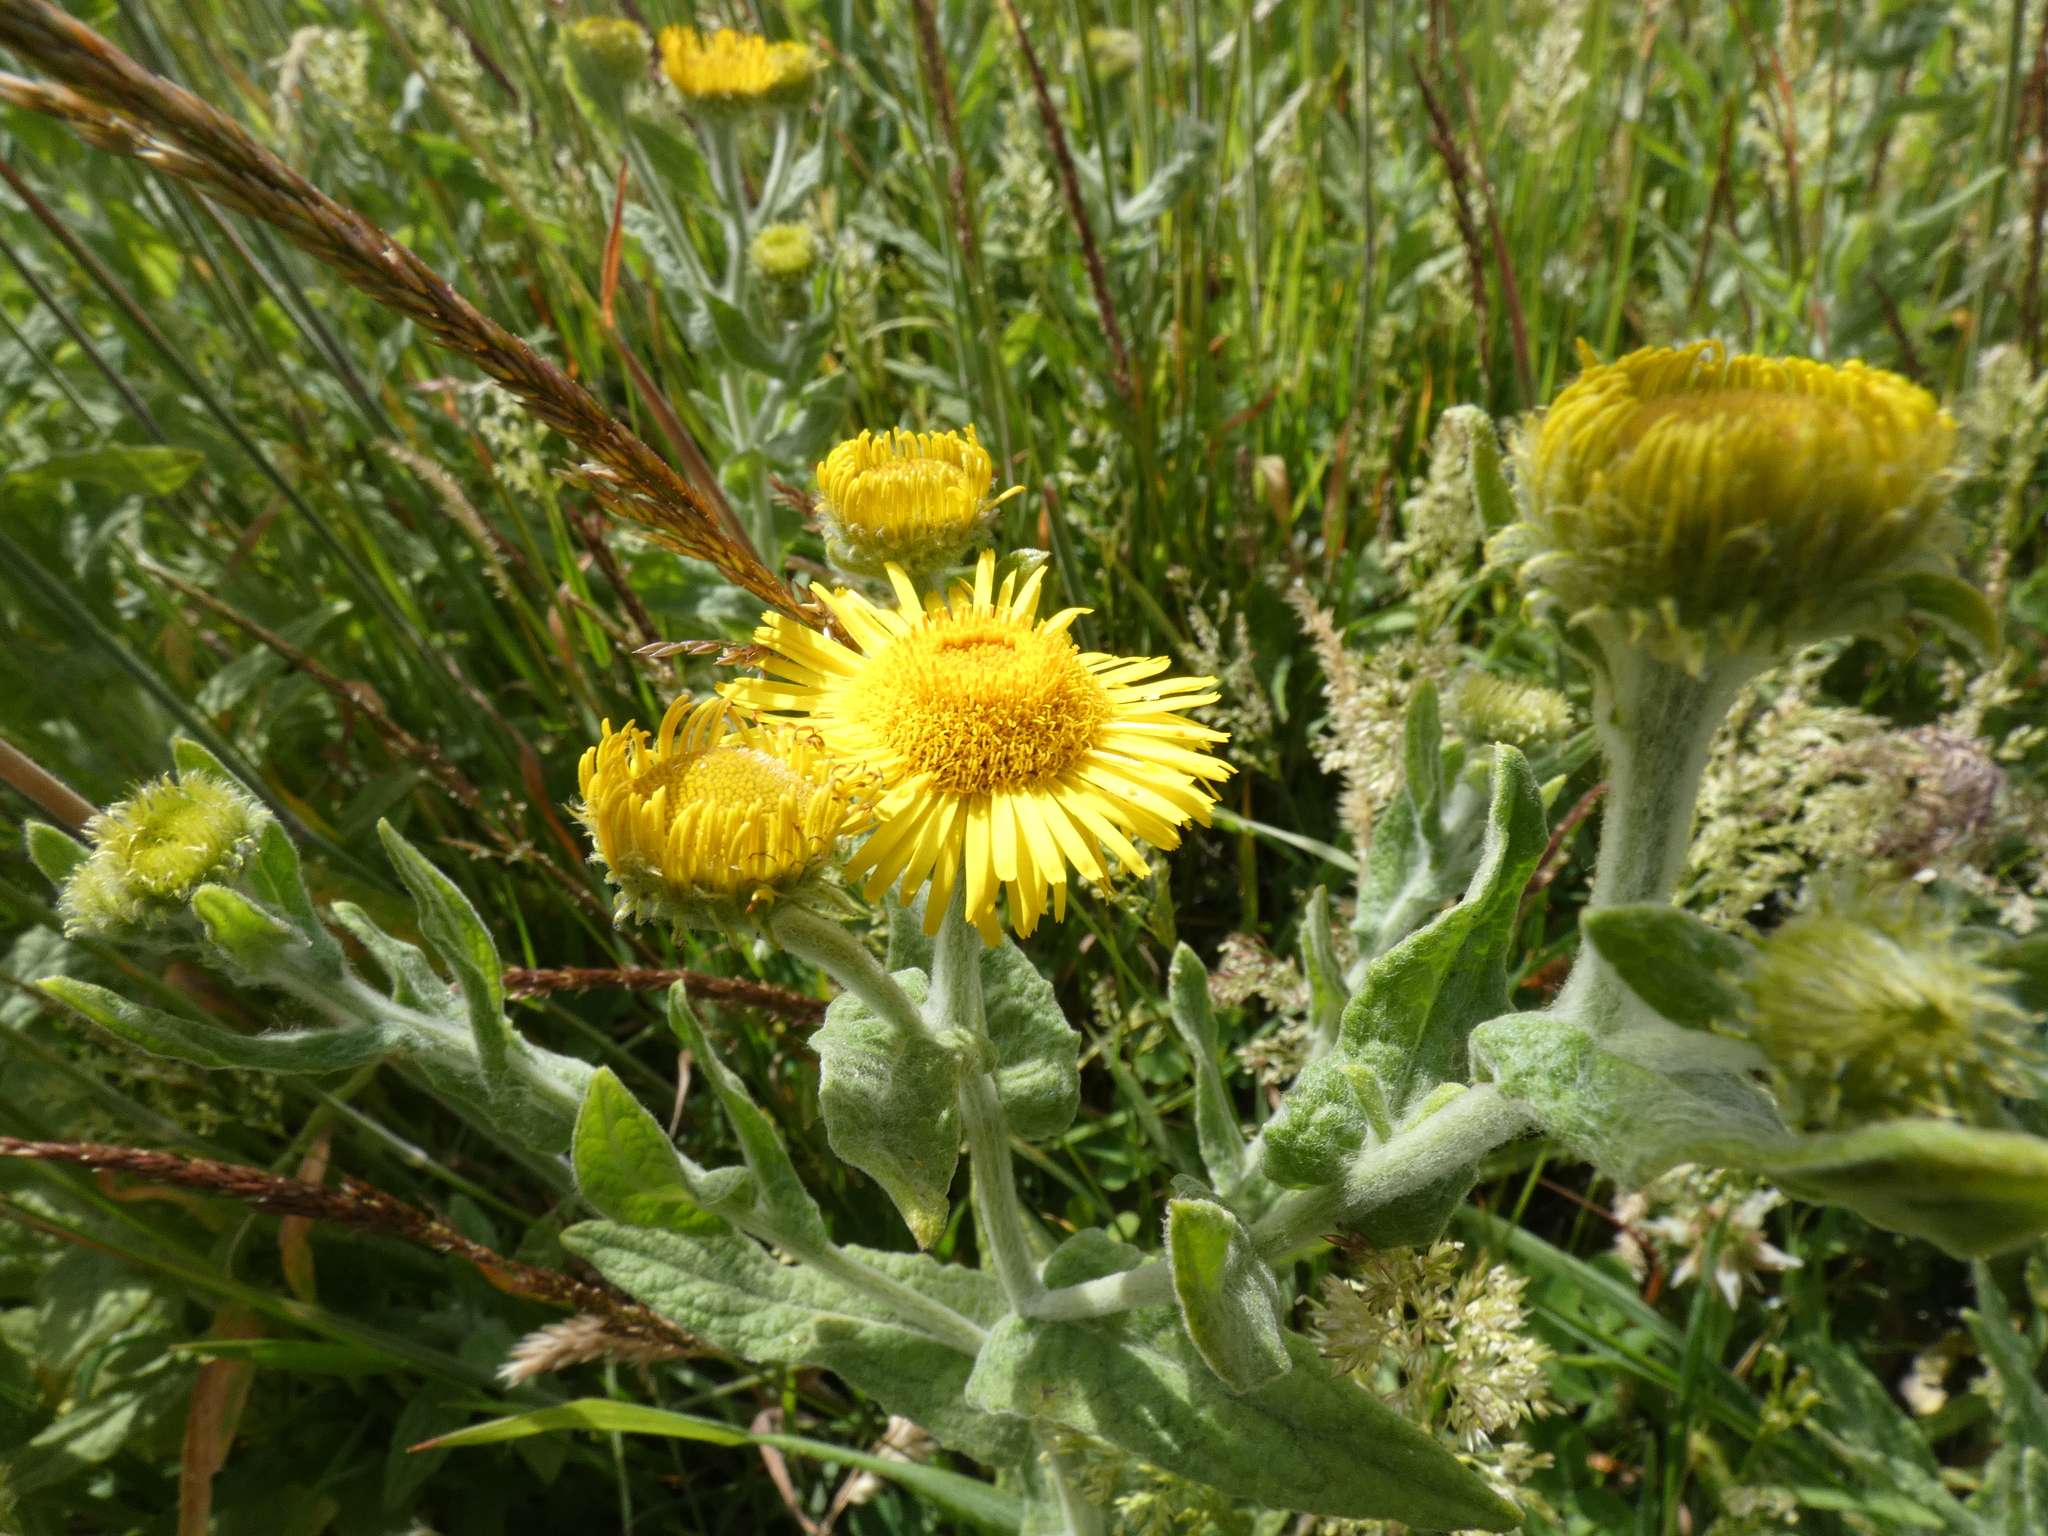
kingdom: Plantae
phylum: Tracheophyta
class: Magnoliopsida
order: Asterales
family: Asteraceae
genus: Pulicaria
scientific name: Pulicaria dysenterica
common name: Common fleabane
